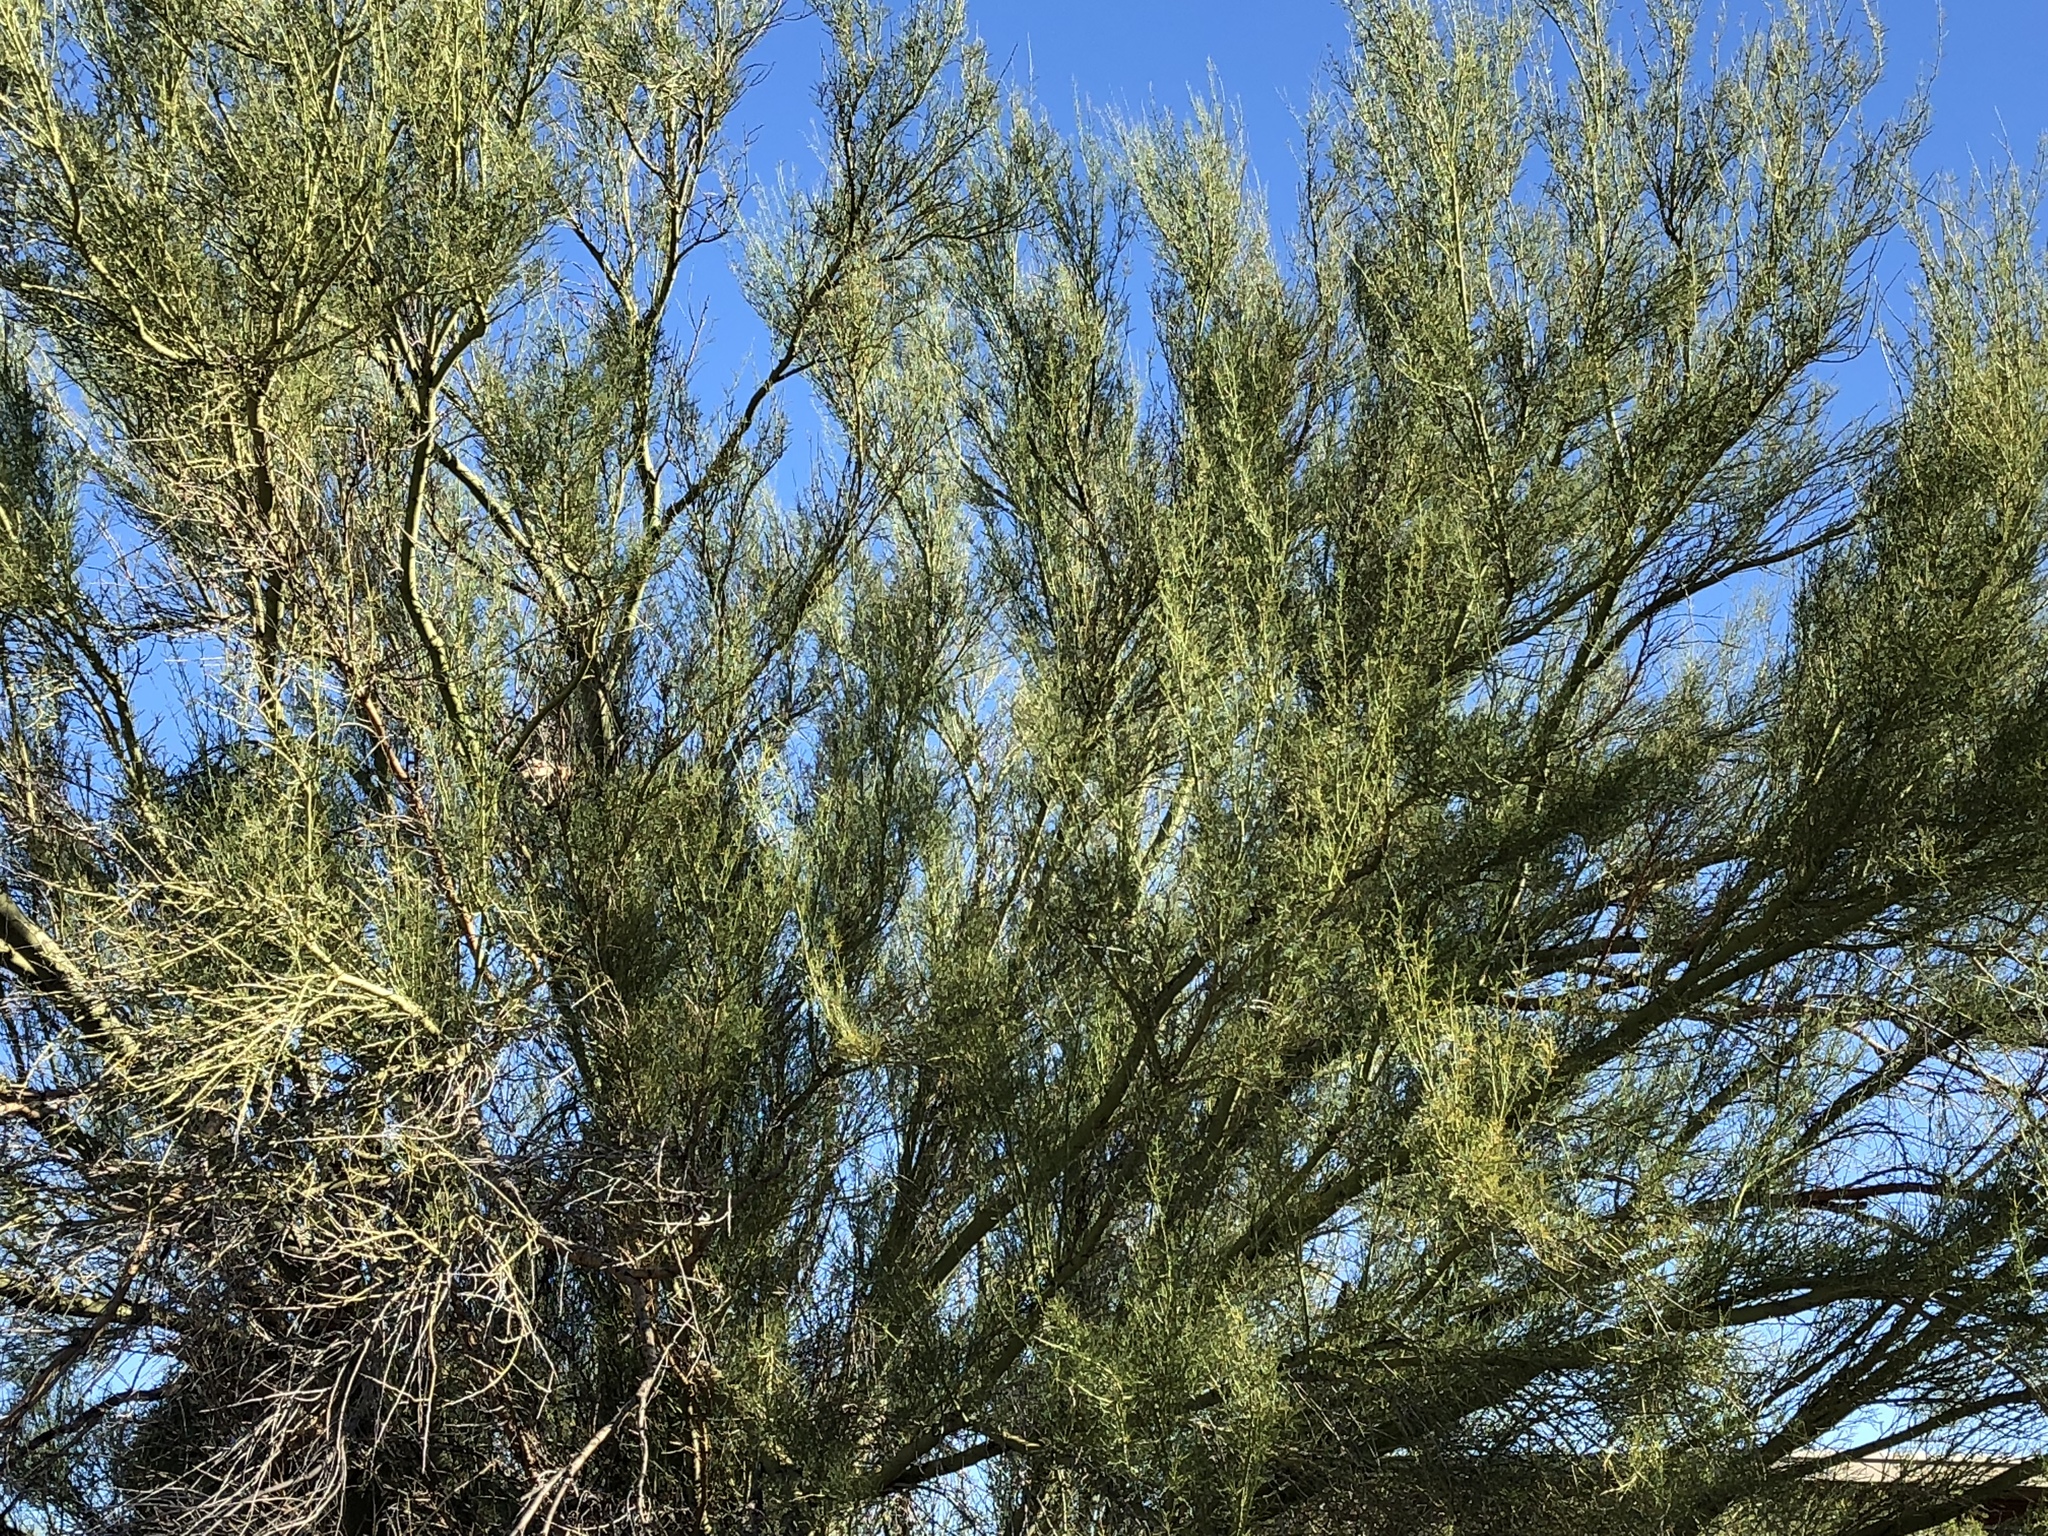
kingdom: Plantae
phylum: Tracheophyta
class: Magnoliopsida
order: Fabales
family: Fabaceae
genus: Parkinsonia
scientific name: Parkinsonia microphylla
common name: Yellow paloverde
